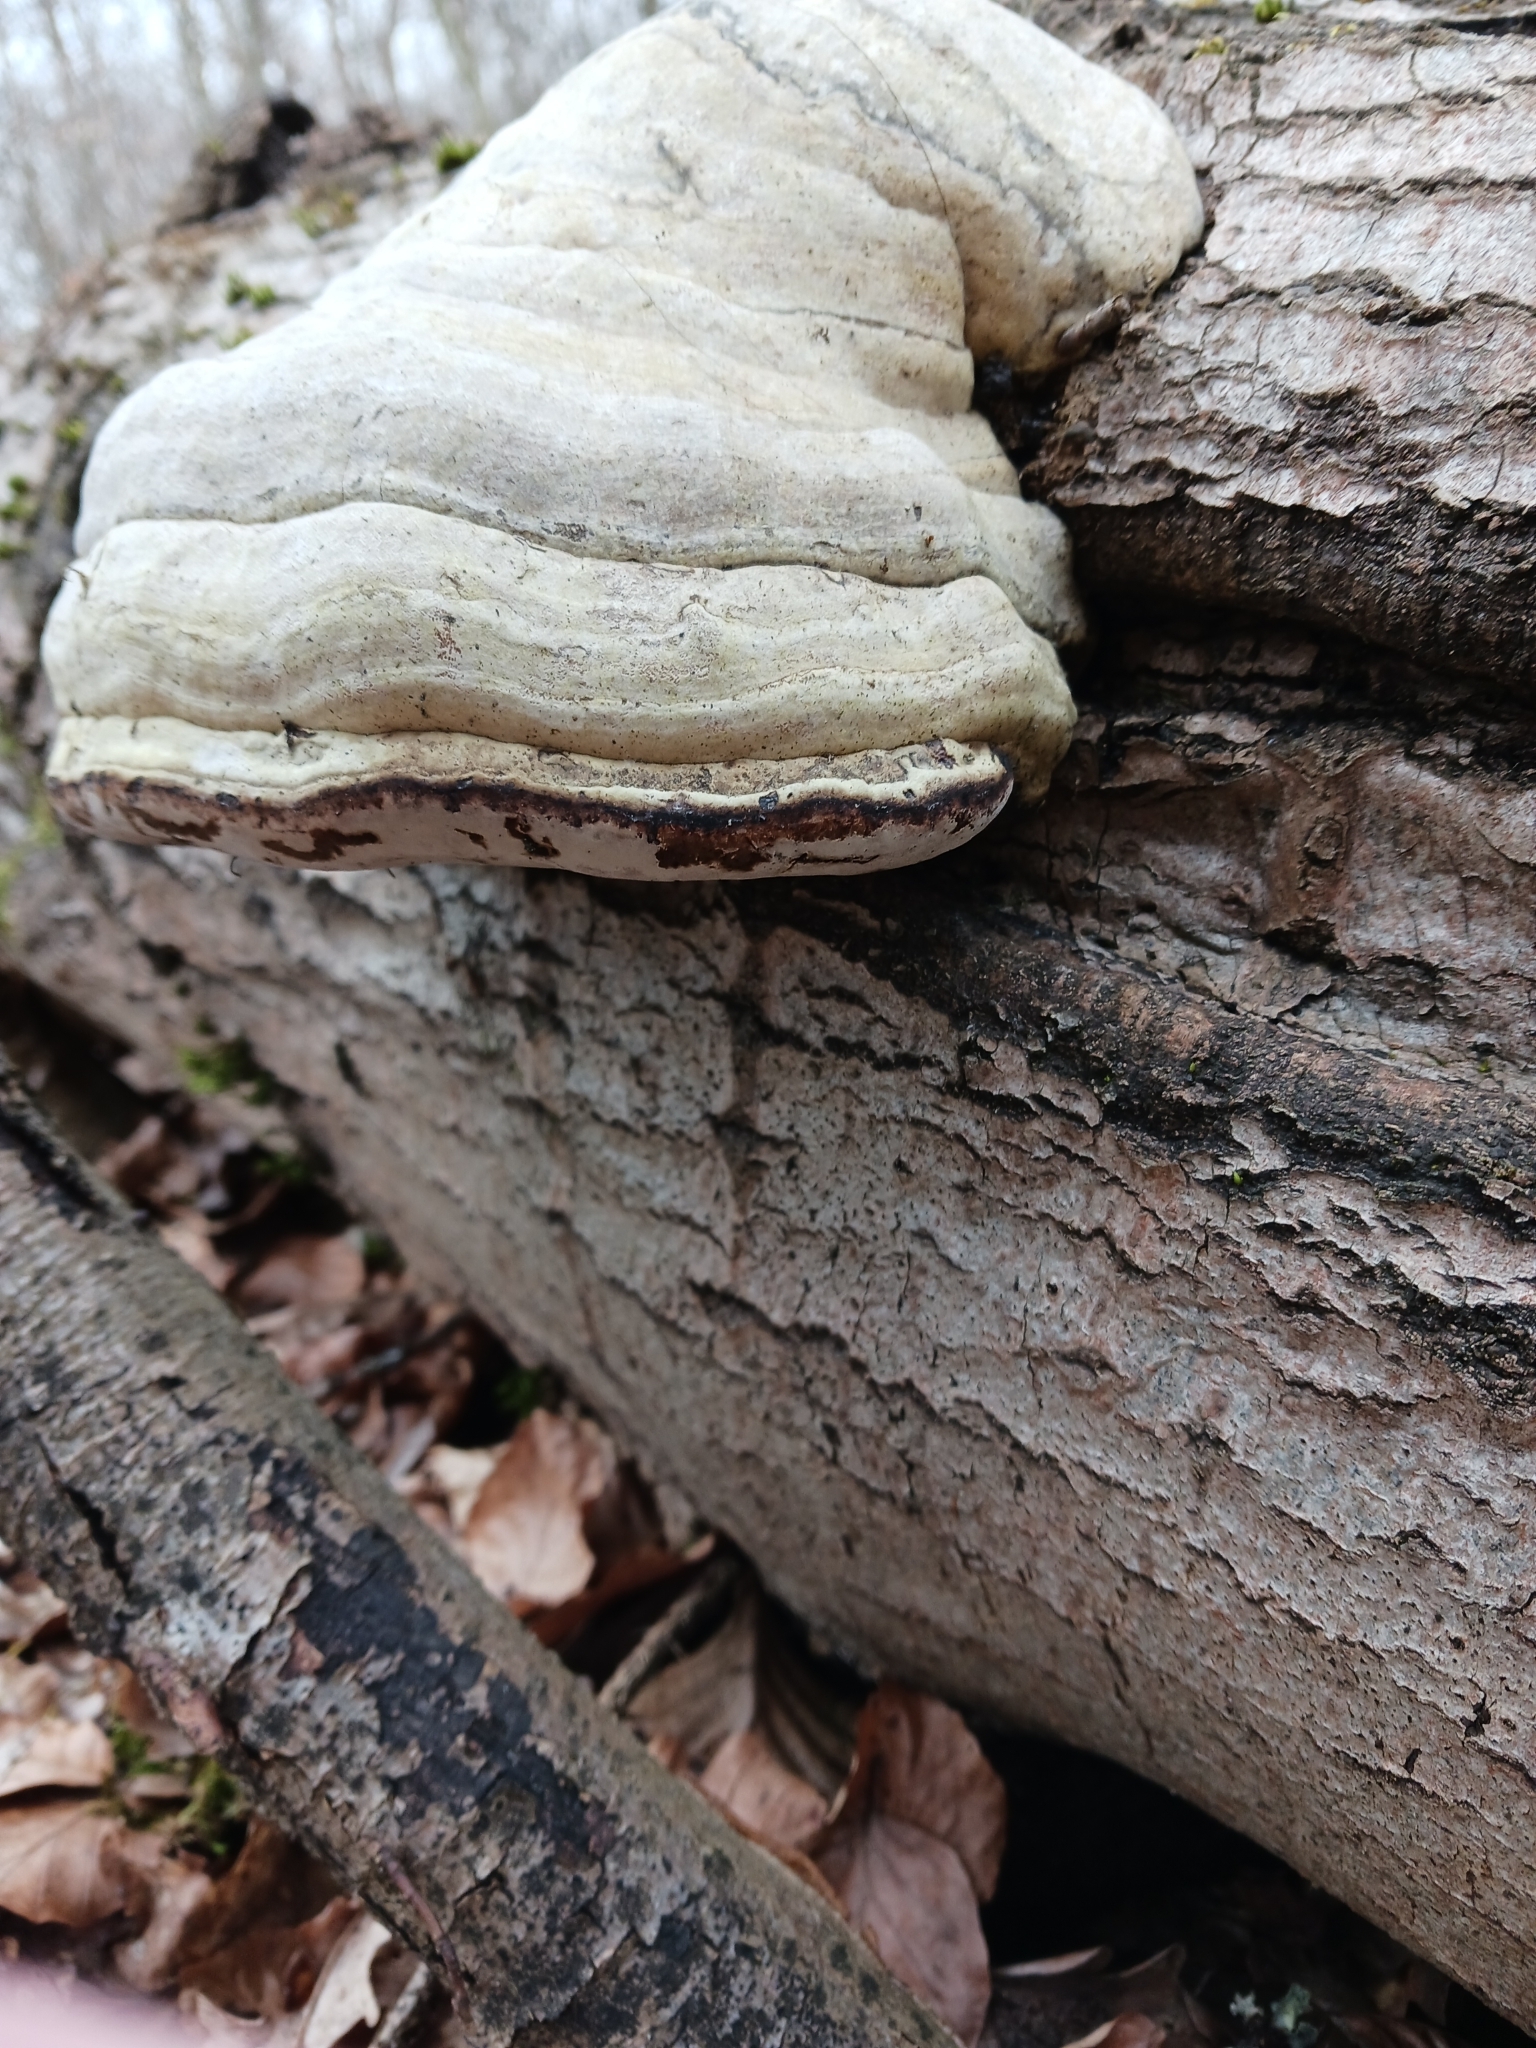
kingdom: Fungi
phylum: Basidiomycota
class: Agaricomycetes
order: Polyporales
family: Polyporaceae
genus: Fomes
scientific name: Fomes
